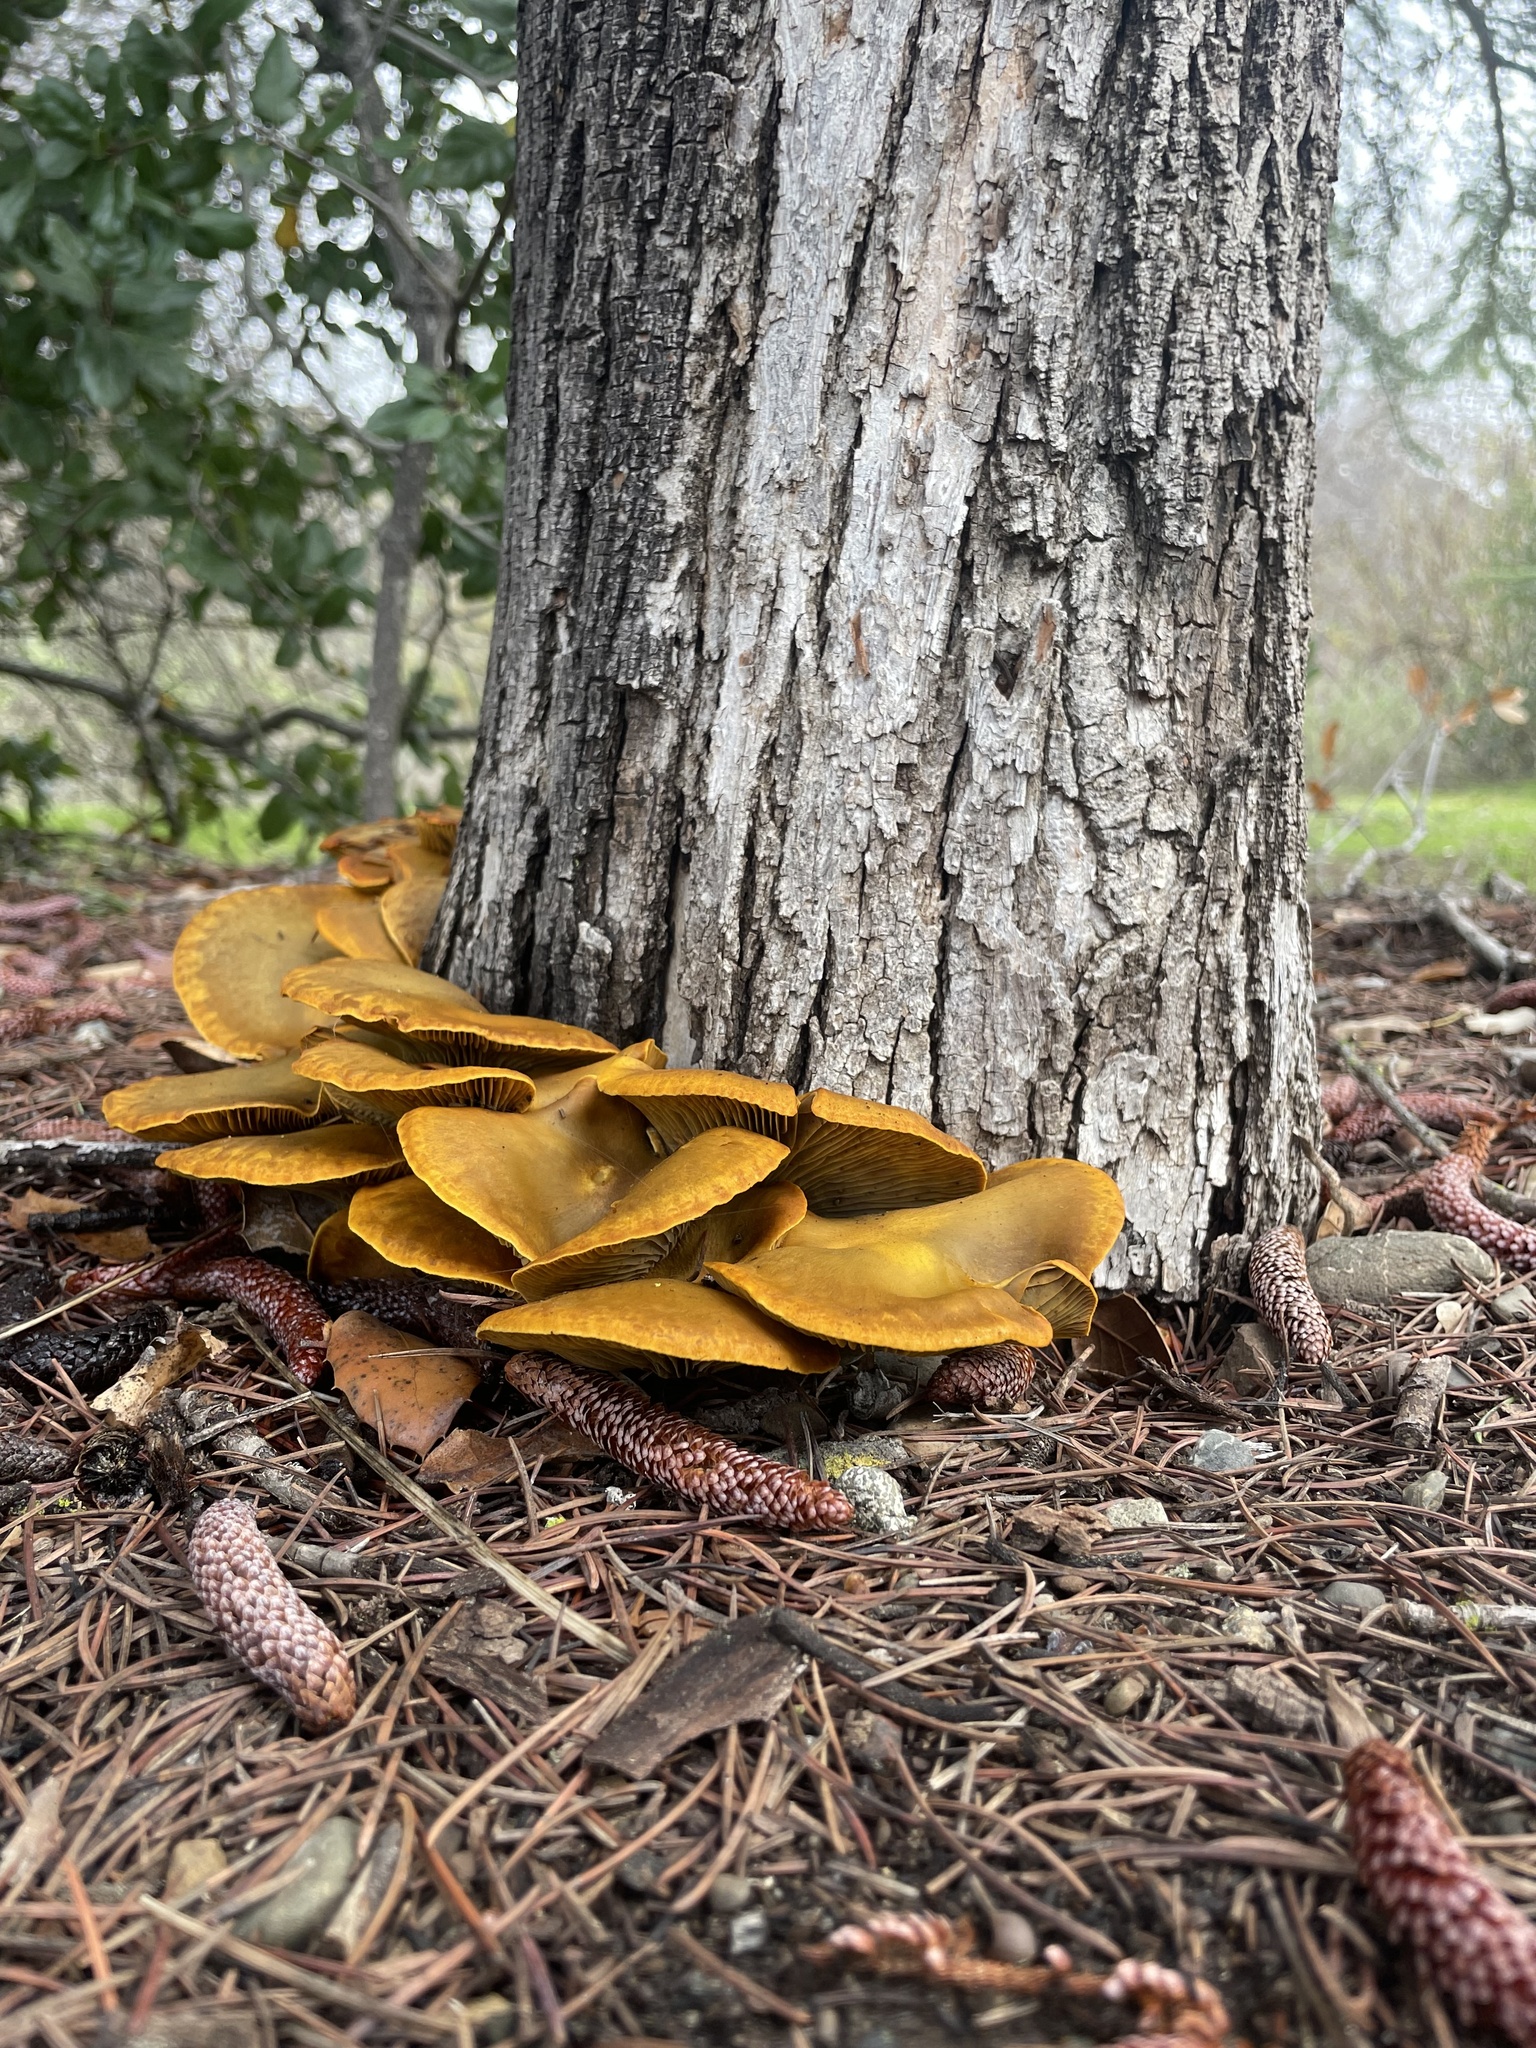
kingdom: Fungi
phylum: Basidiomycota
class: Agaricomycetes
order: Agaricales
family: Omphalotaceae
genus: Omphalotus
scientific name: Omphalotus olivascens
